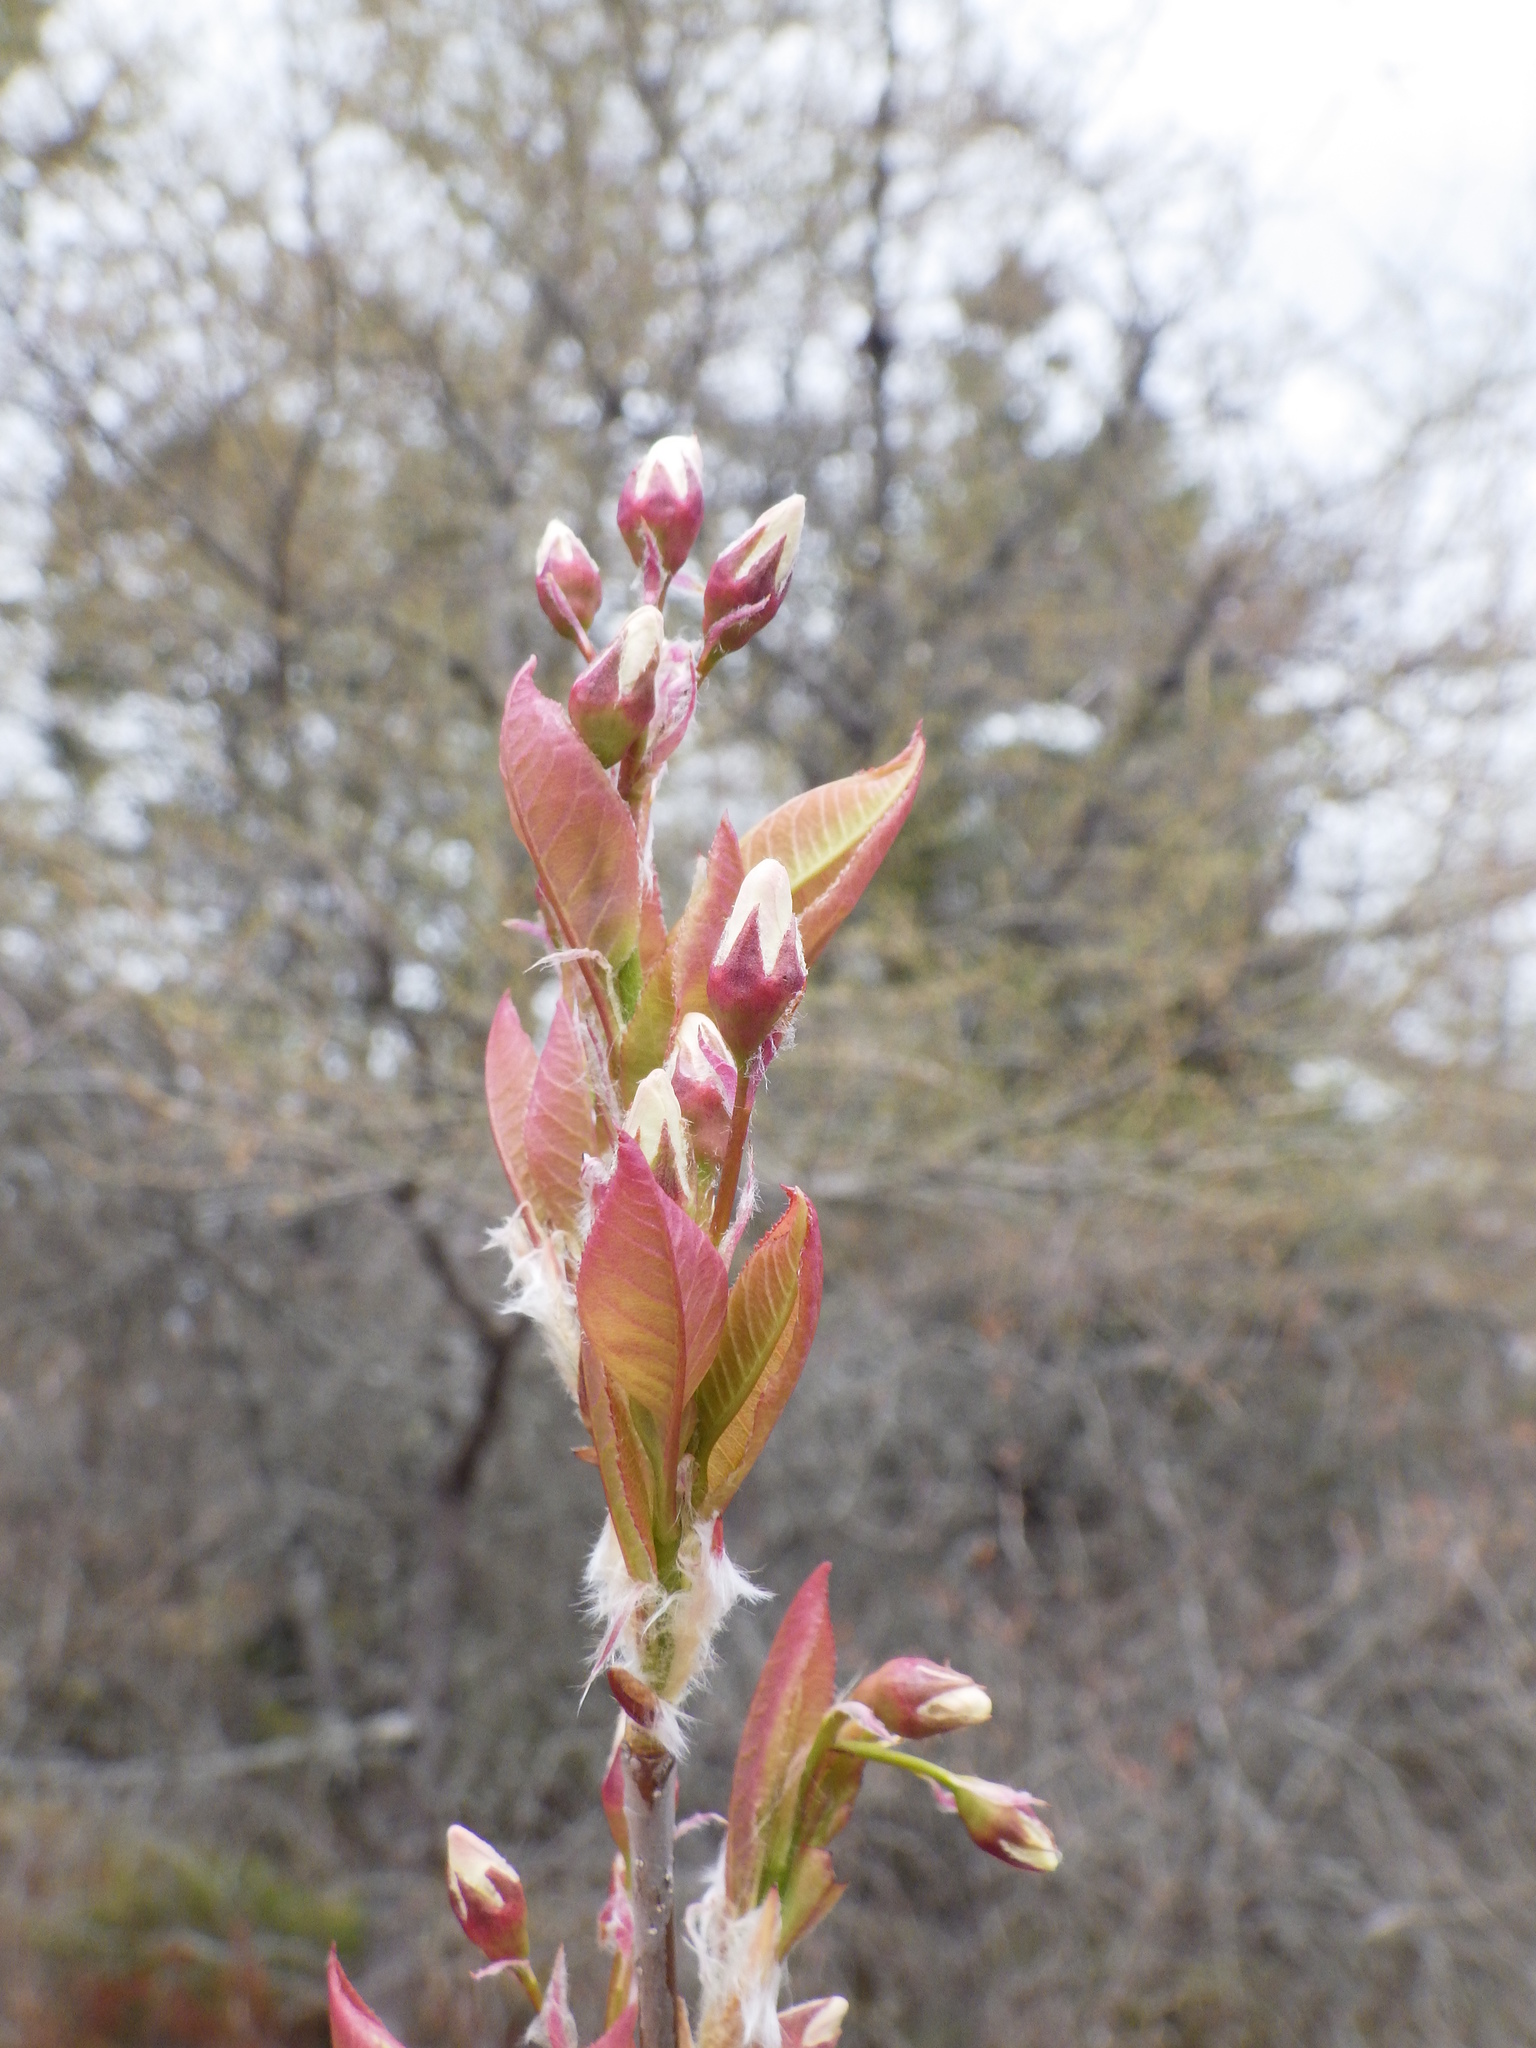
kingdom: Plantae
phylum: Tracheophyta
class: Magnoliopsida
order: Rosales
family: Rosaceae
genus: Amelanchier
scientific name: Amelanchier laevis
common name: Allegheny serviceberry
